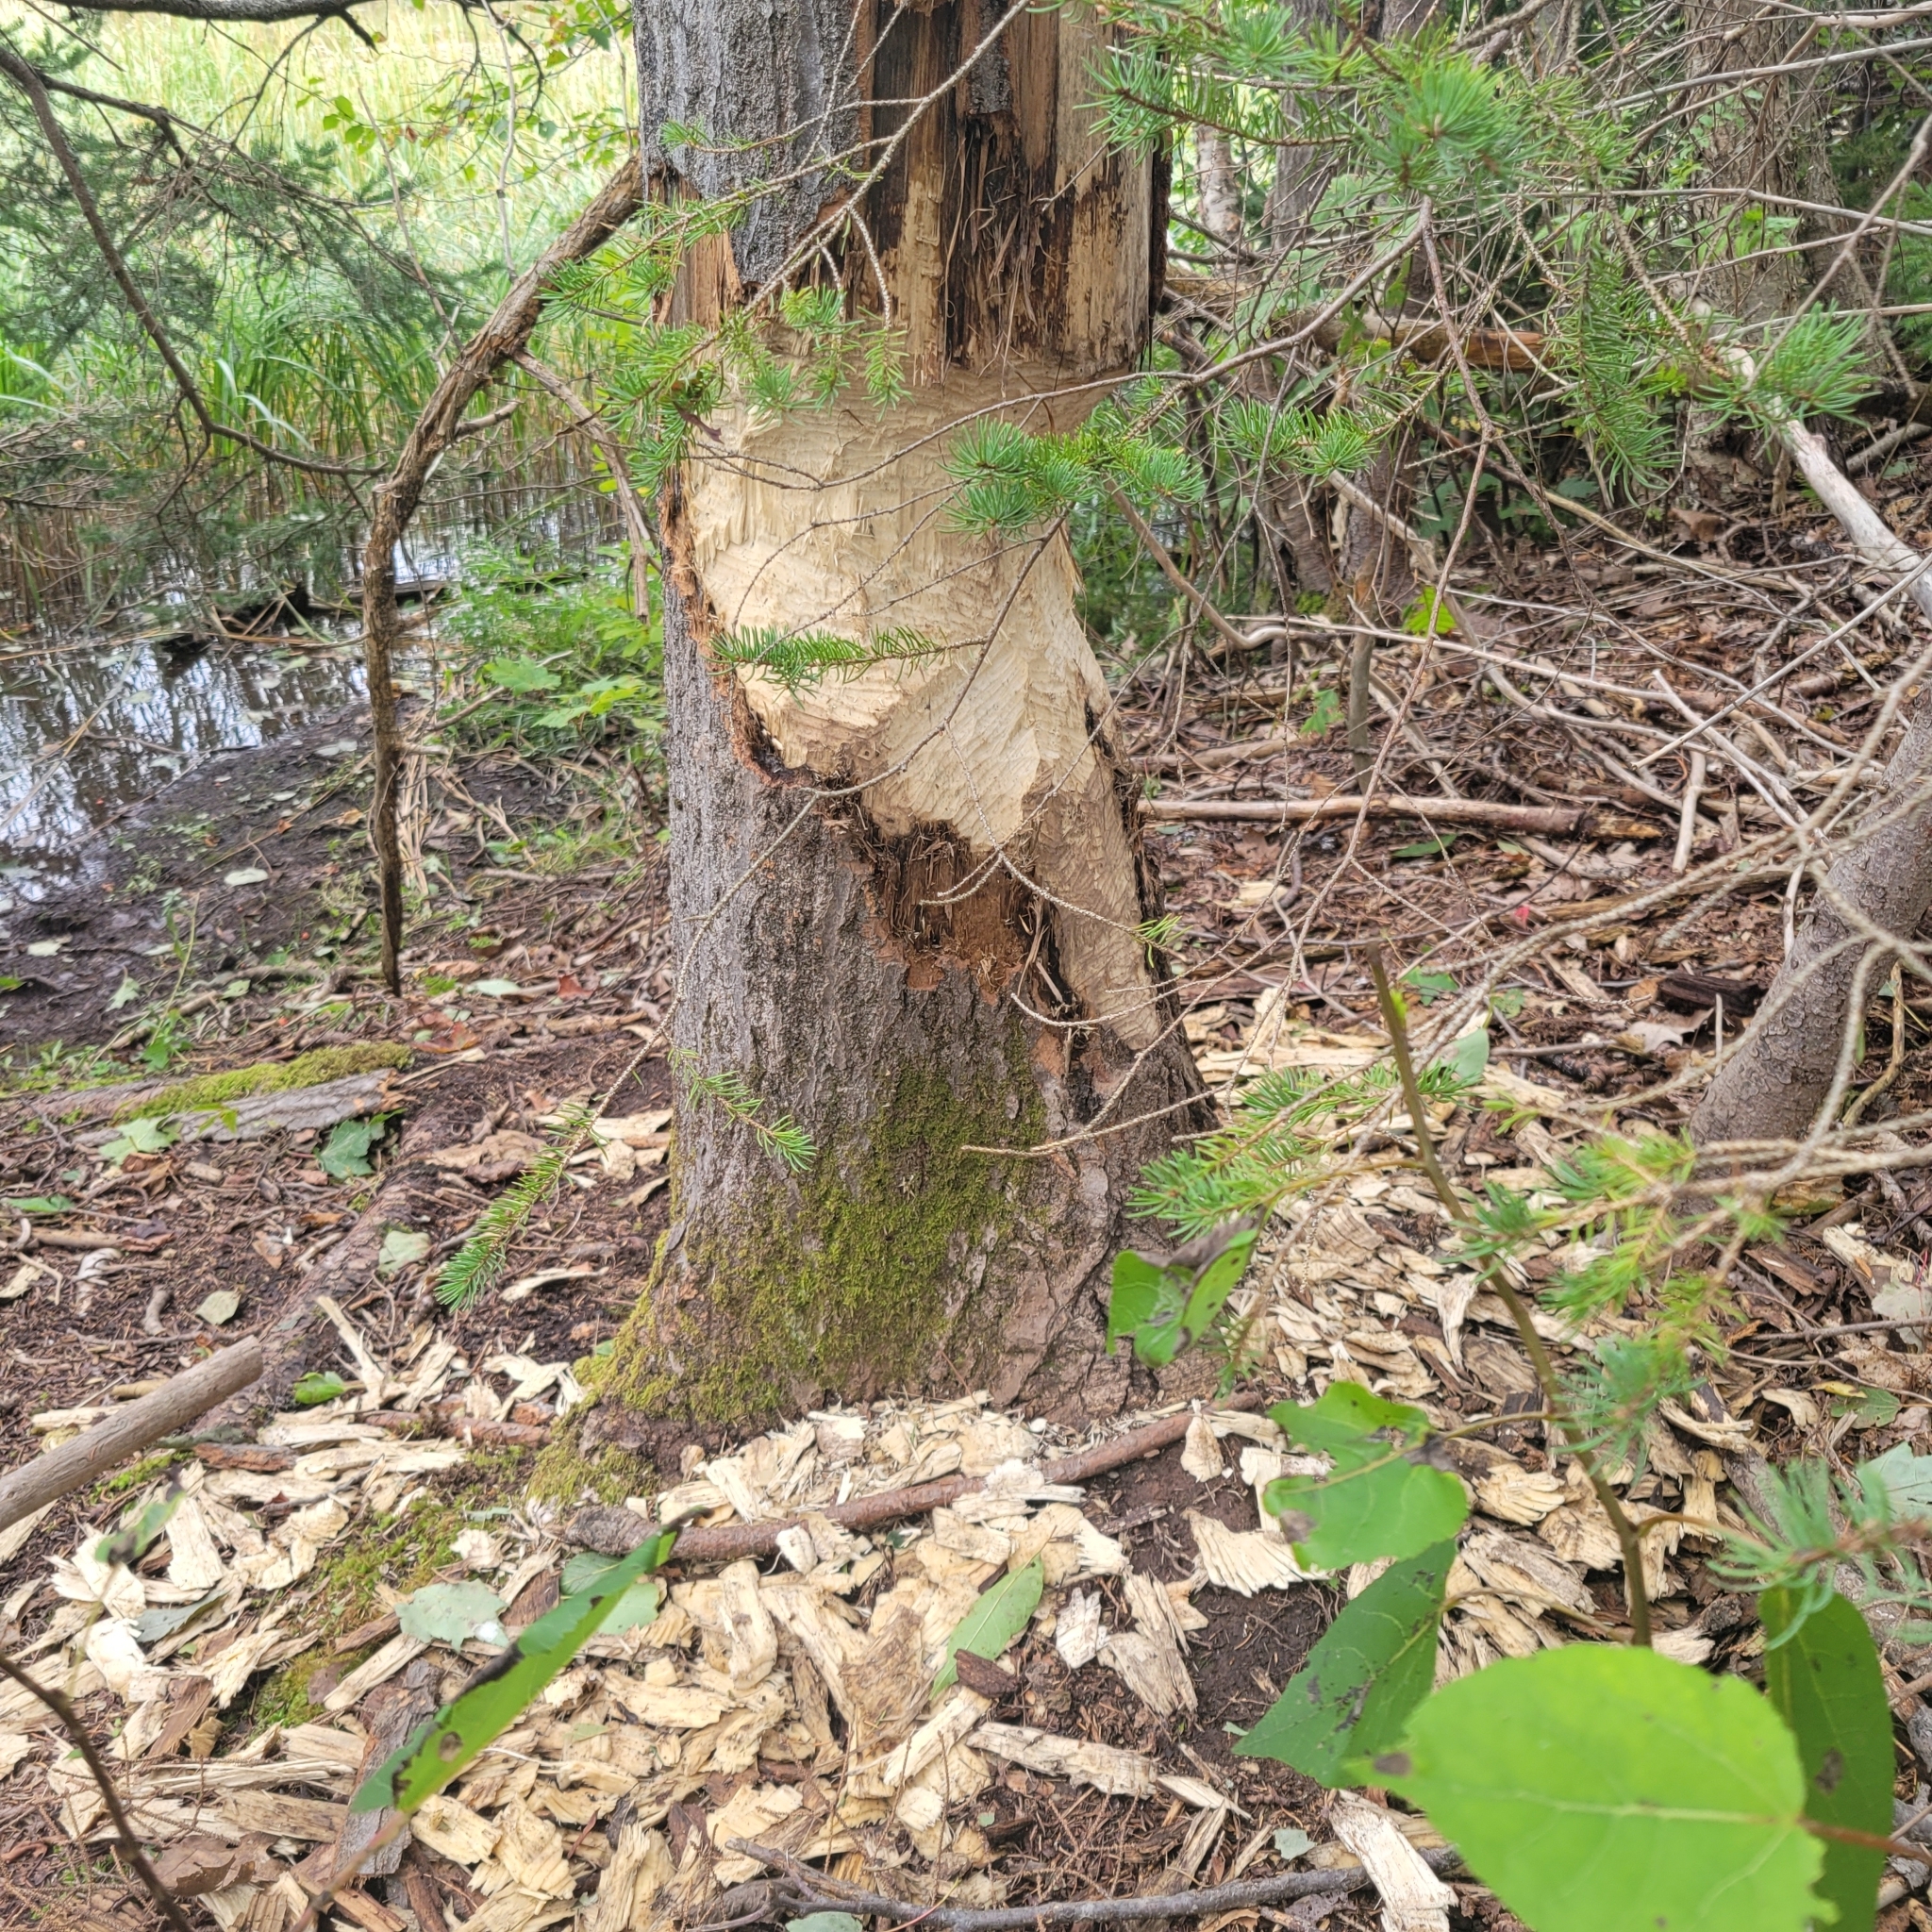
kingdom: Animalia
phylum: Chordata
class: Mammalia
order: Rodentia
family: Castoridae
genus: Castor
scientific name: Castor canadensis
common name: American beaver
